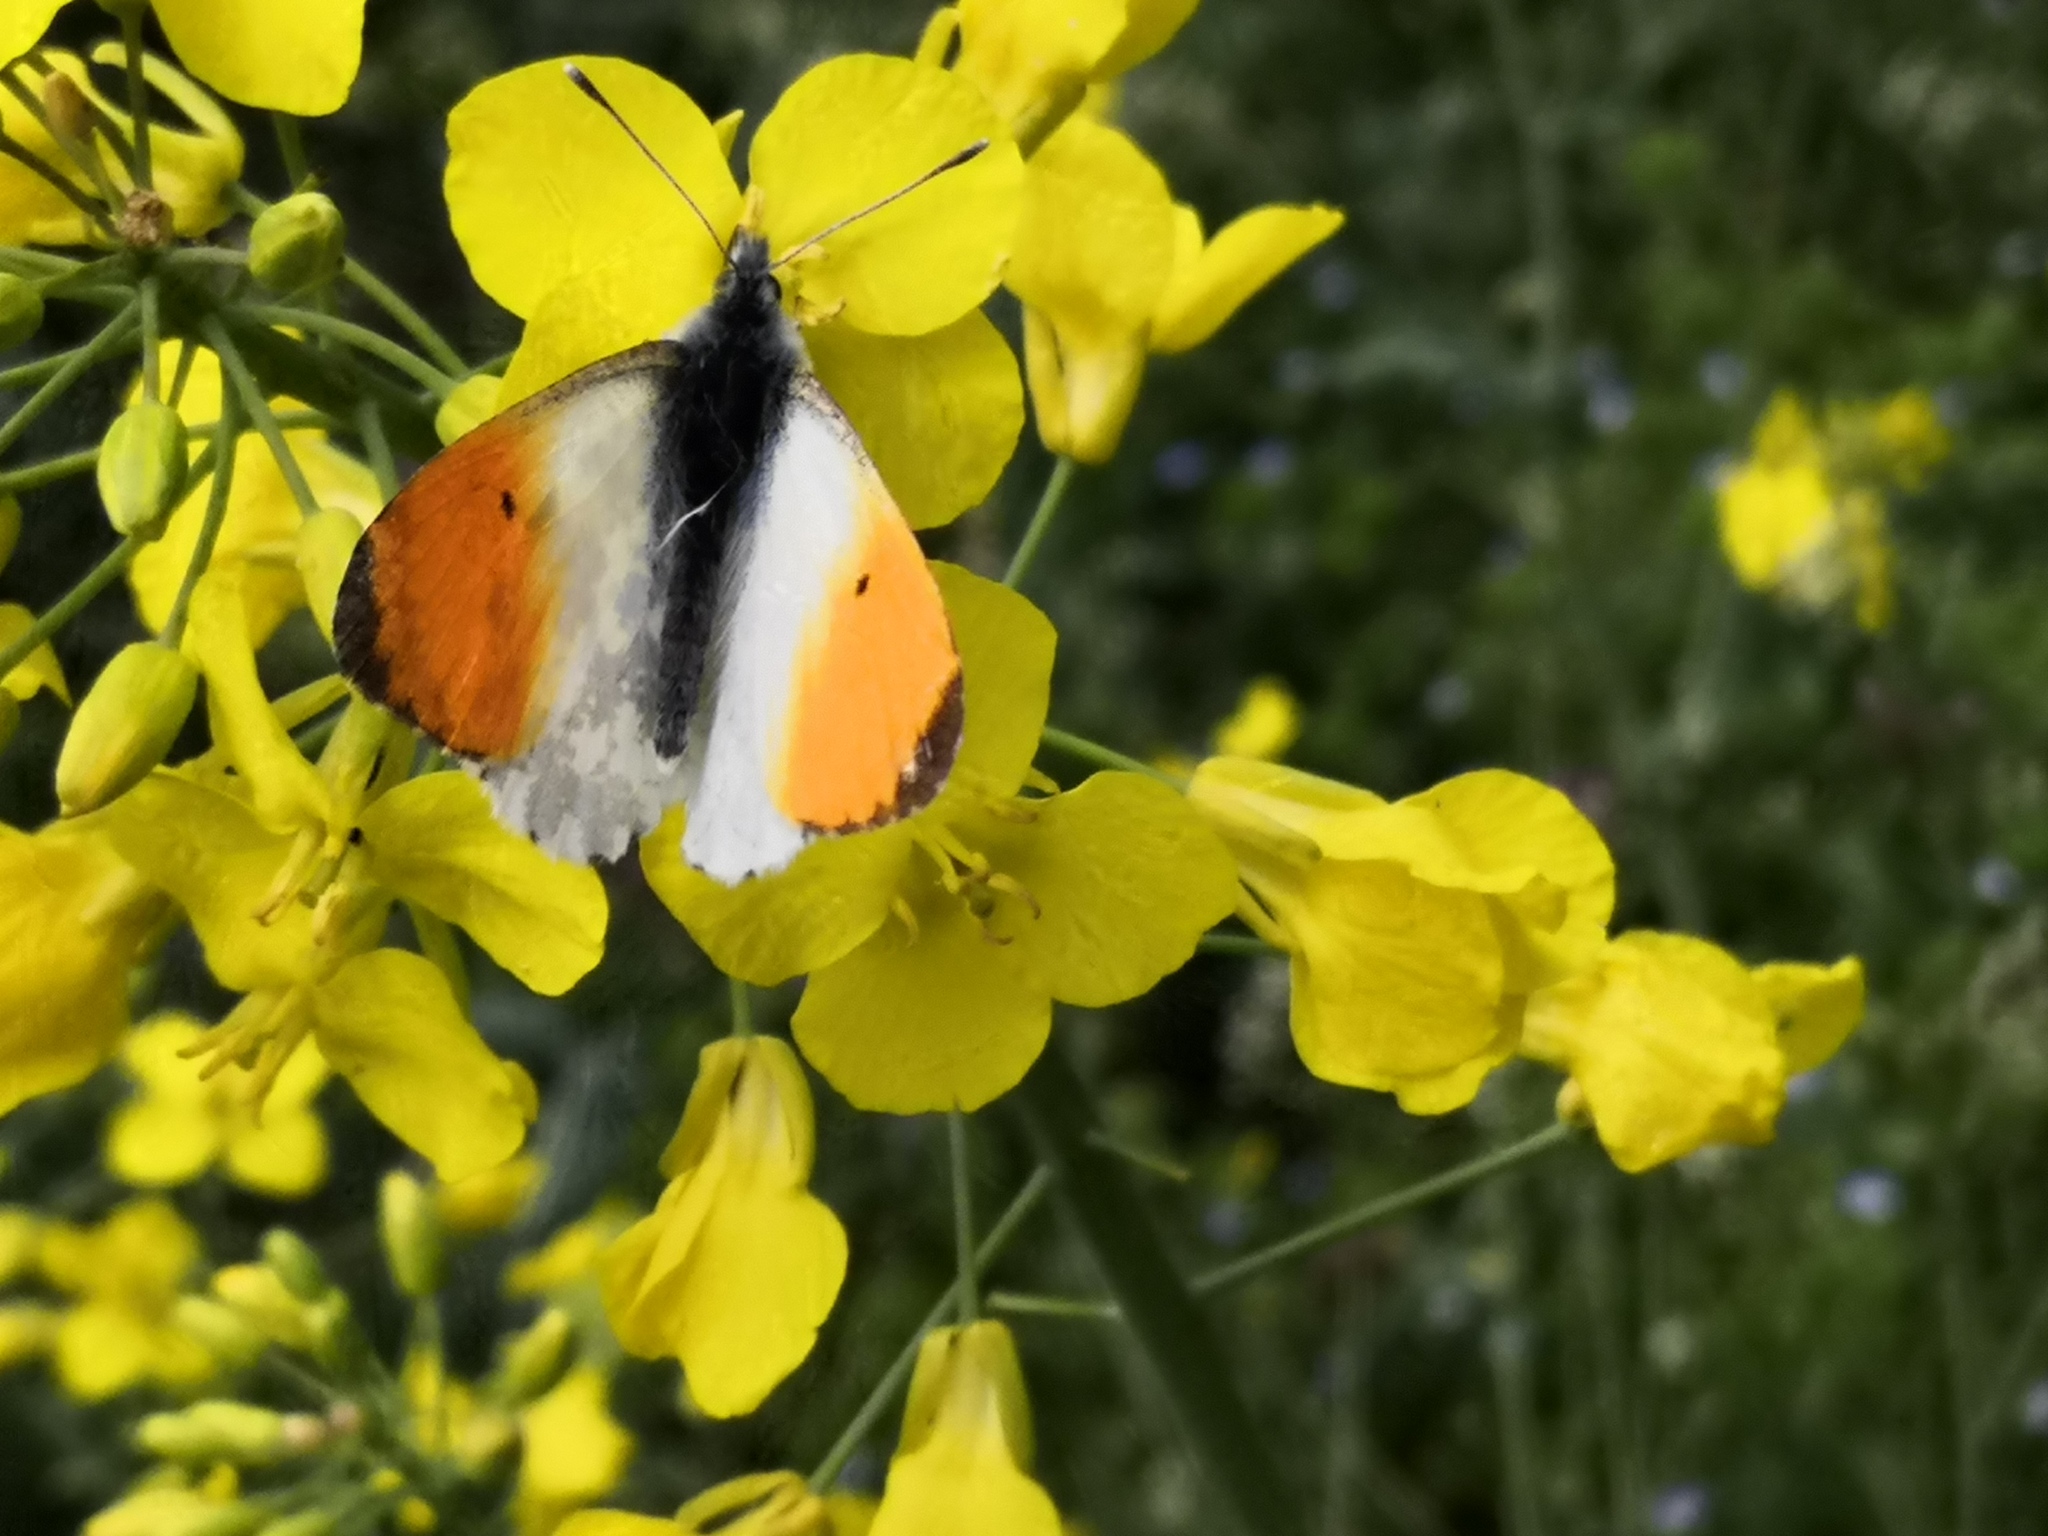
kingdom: Animalia
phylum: Arthropoda
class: Insecta
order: Lepidoptera
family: Pieridae
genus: Anthocharis
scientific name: Anthocharis cardamines
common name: Orange-tip
